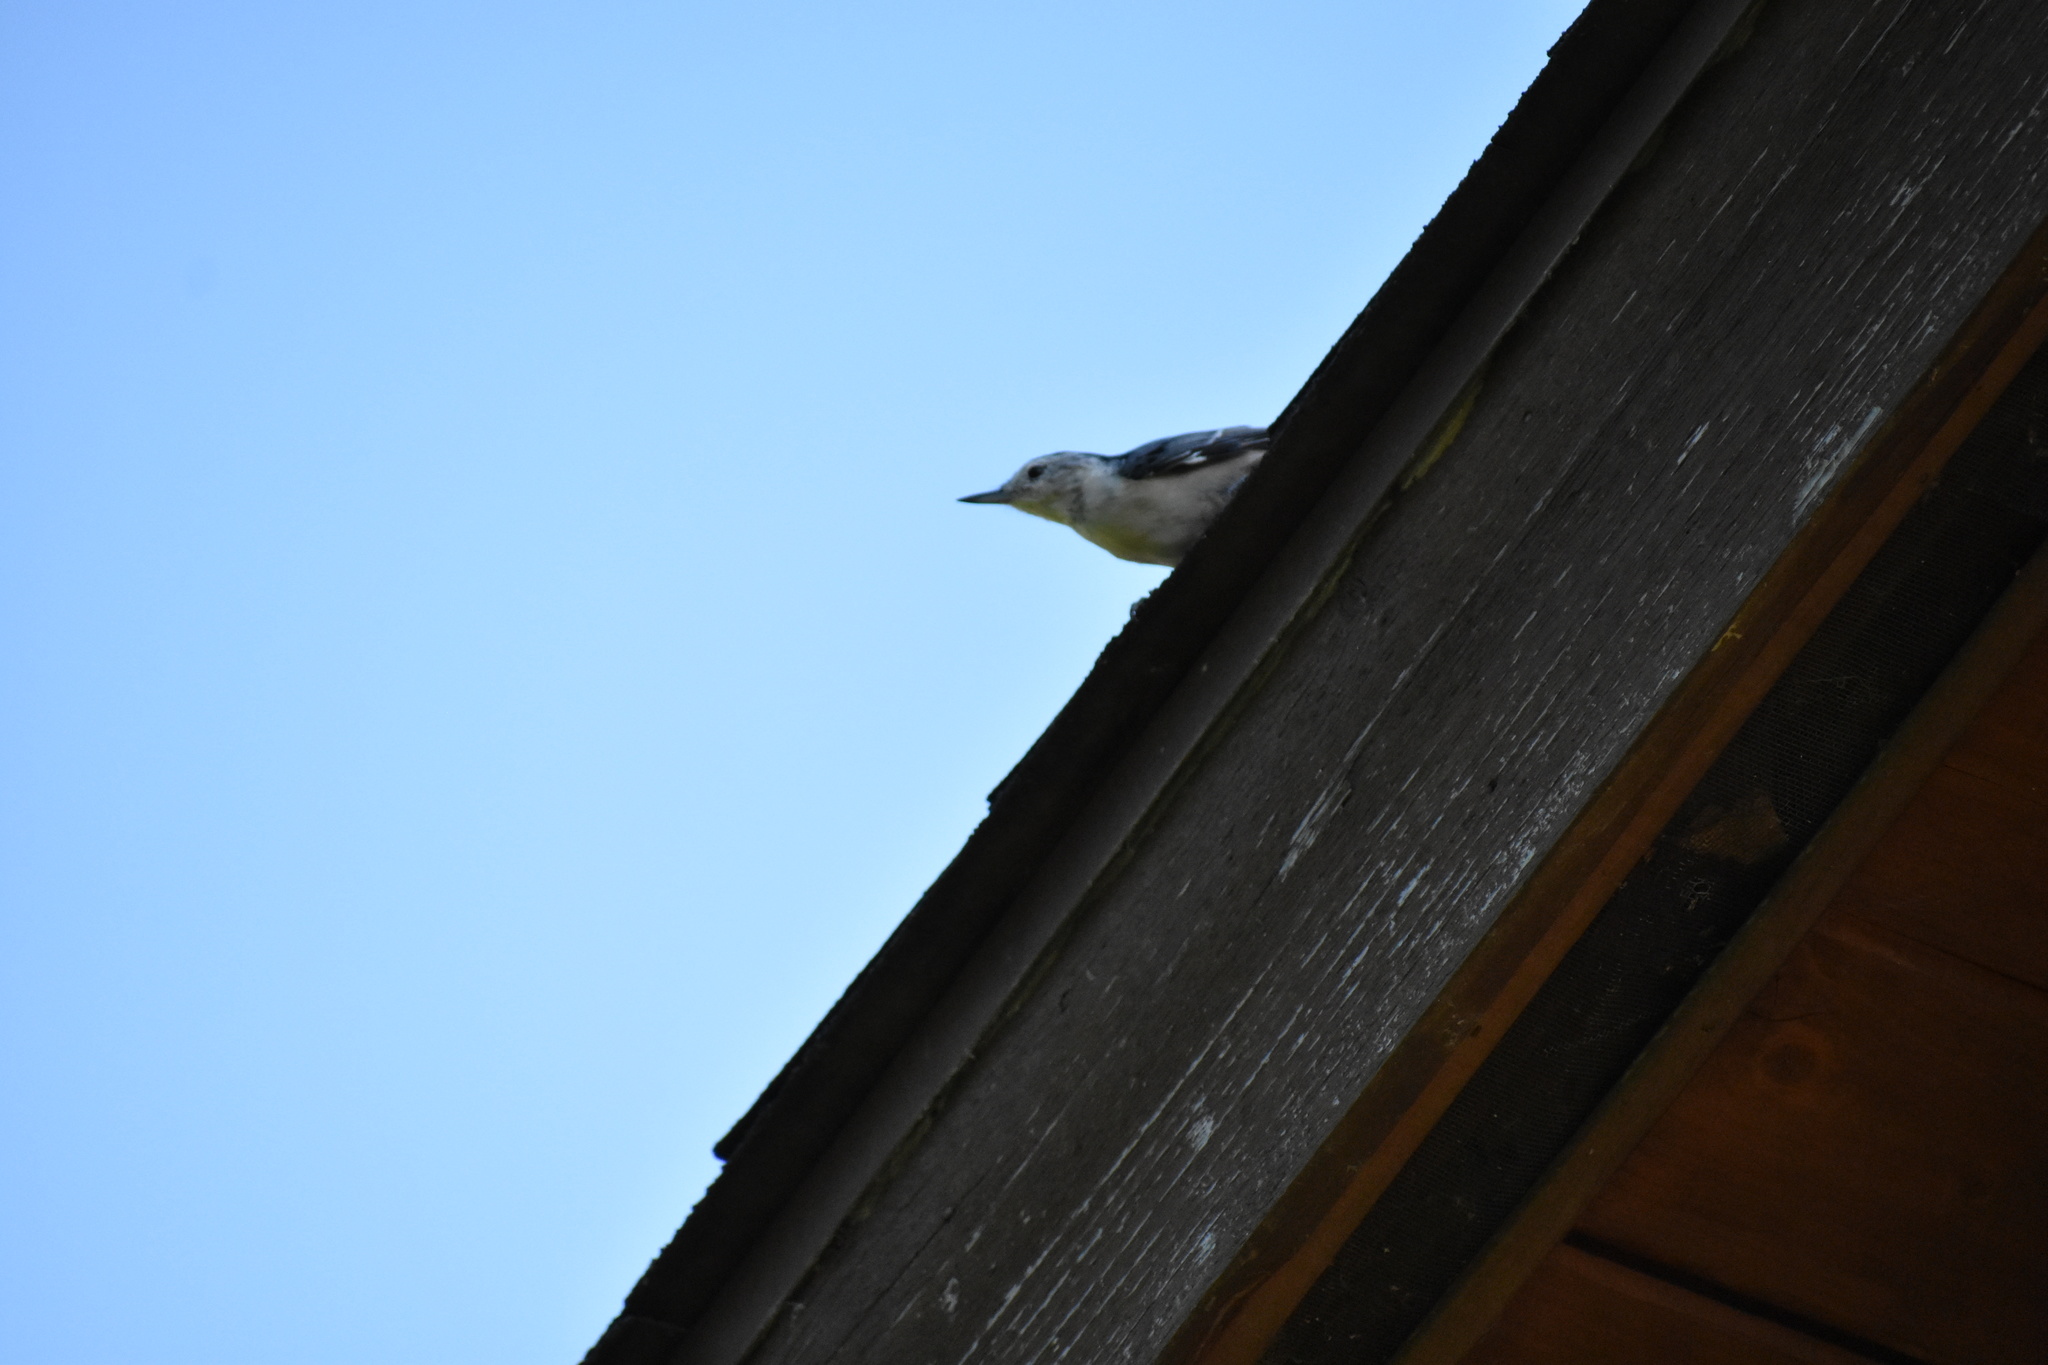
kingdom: Animalia
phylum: Chordata
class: Aves
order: Passeriformes
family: Sittidae
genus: Sitta
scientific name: Sitta carolinensis
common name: White-breasted nuthatch
